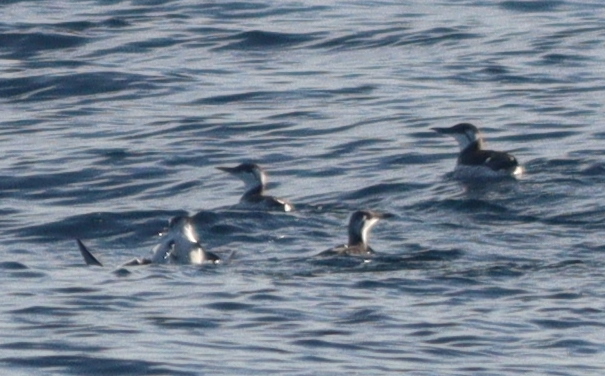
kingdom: Animalia
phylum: Chordata
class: Aves
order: Charadriiformes
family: Alcidae
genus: Uria
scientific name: Uria aalge
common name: Common murre
